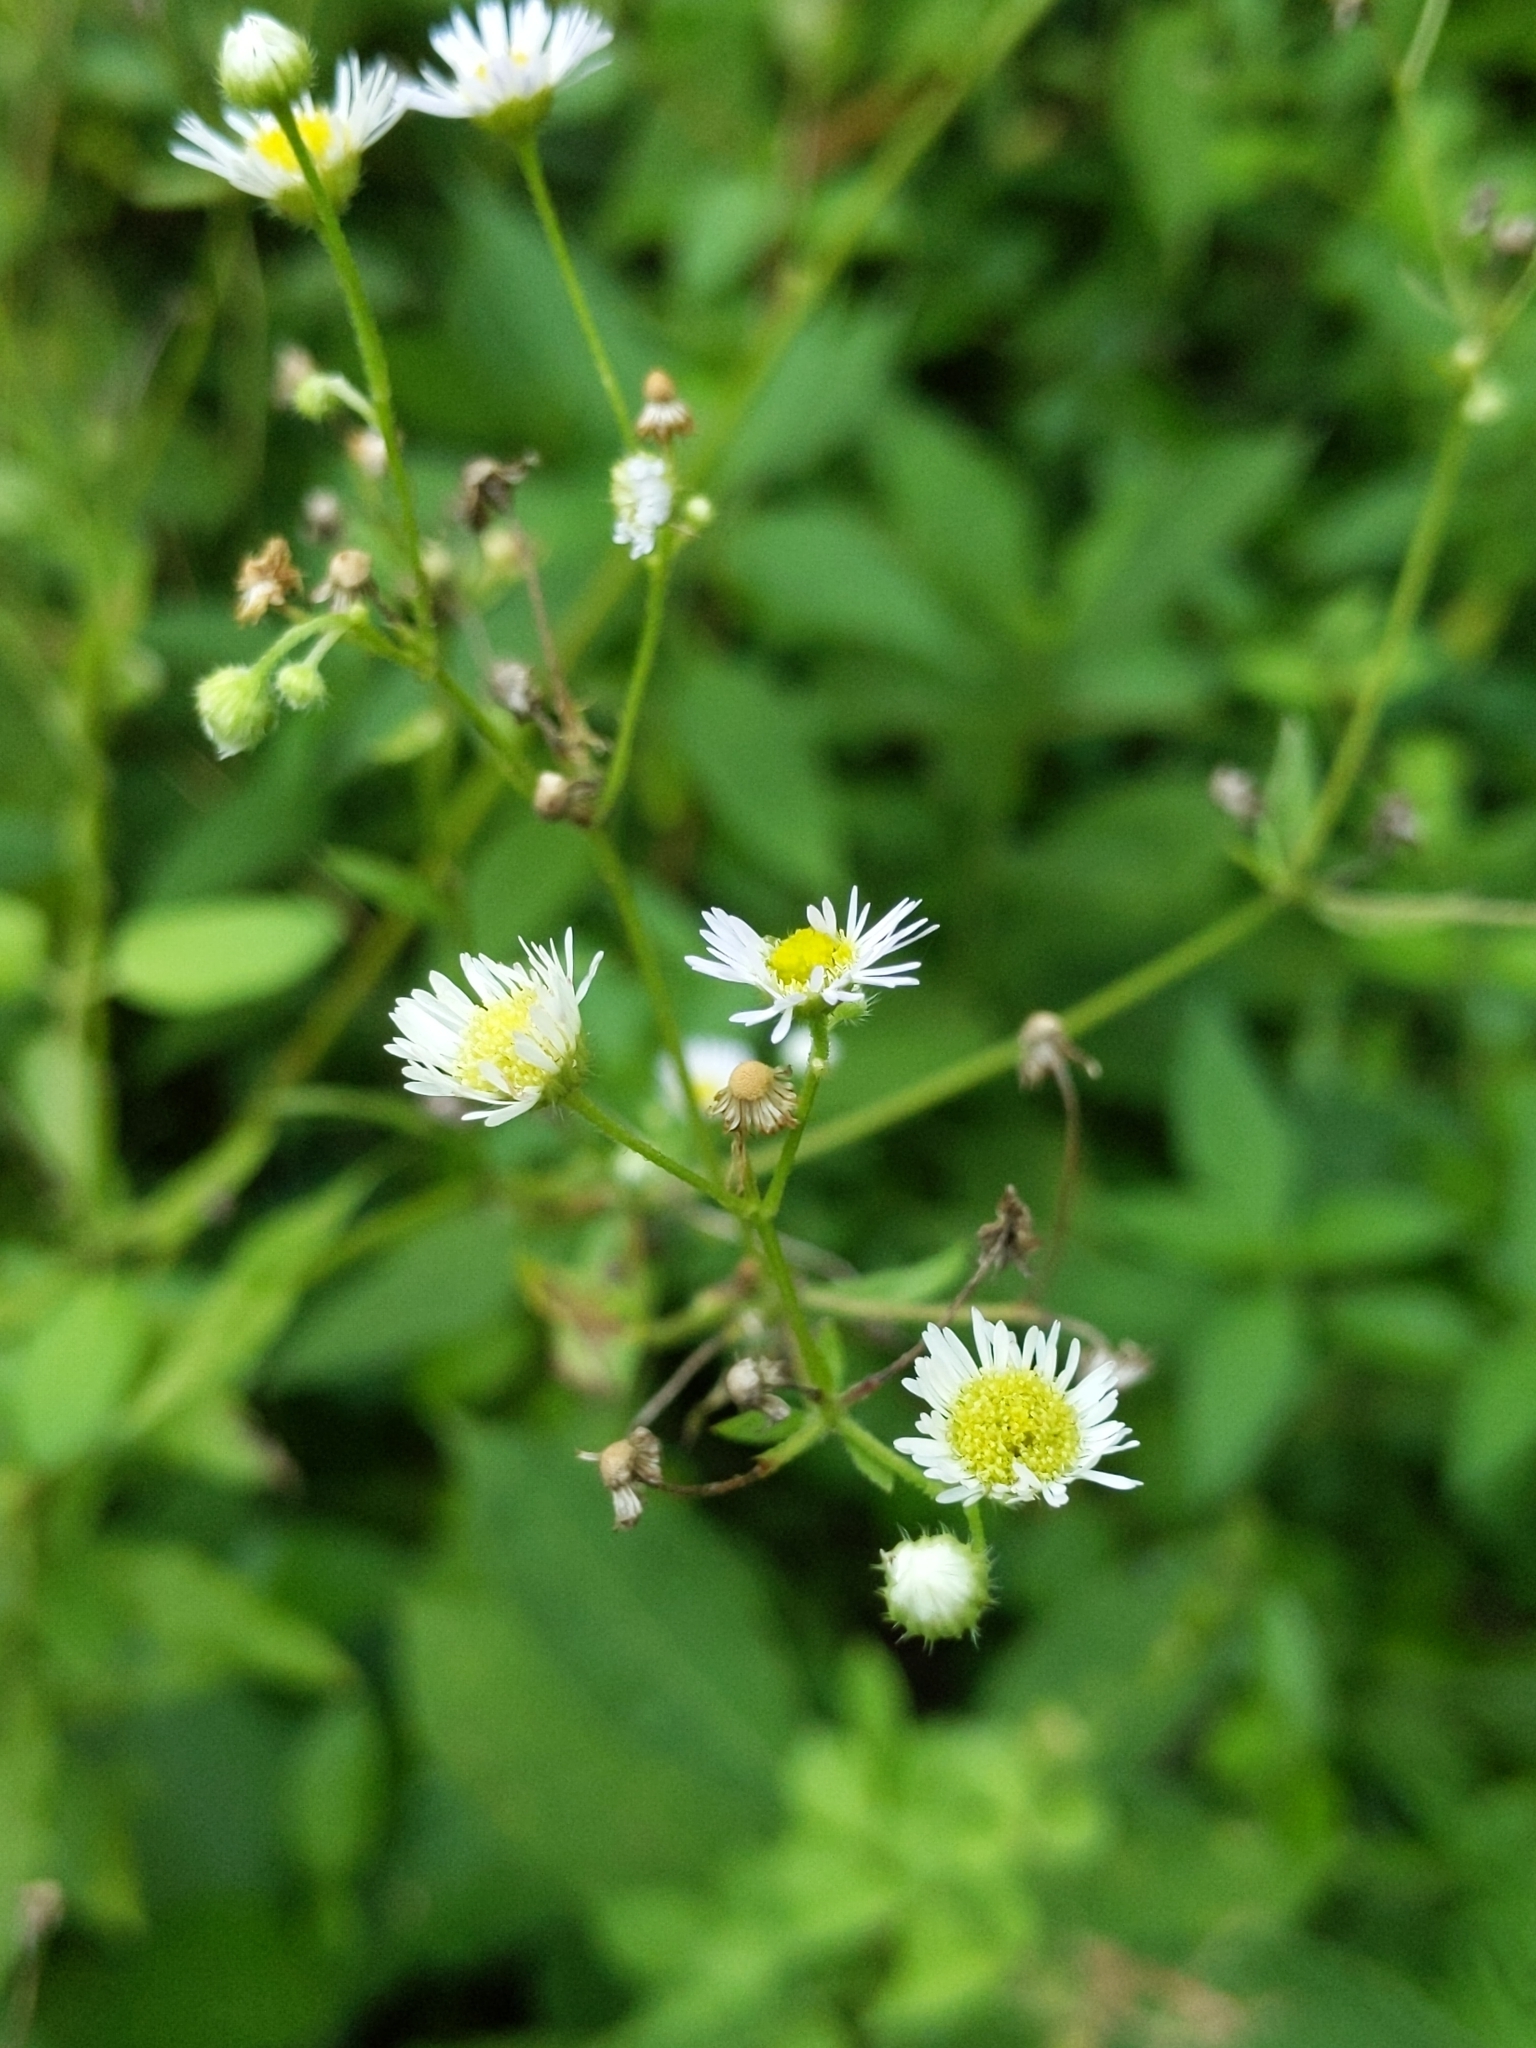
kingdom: Plantae
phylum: Tracheophyta
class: Magnoliopsida
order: Asterales
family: Asteraceae
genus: Erigeron
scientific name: Erigeron strigosus
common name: Common eastern fleabane
